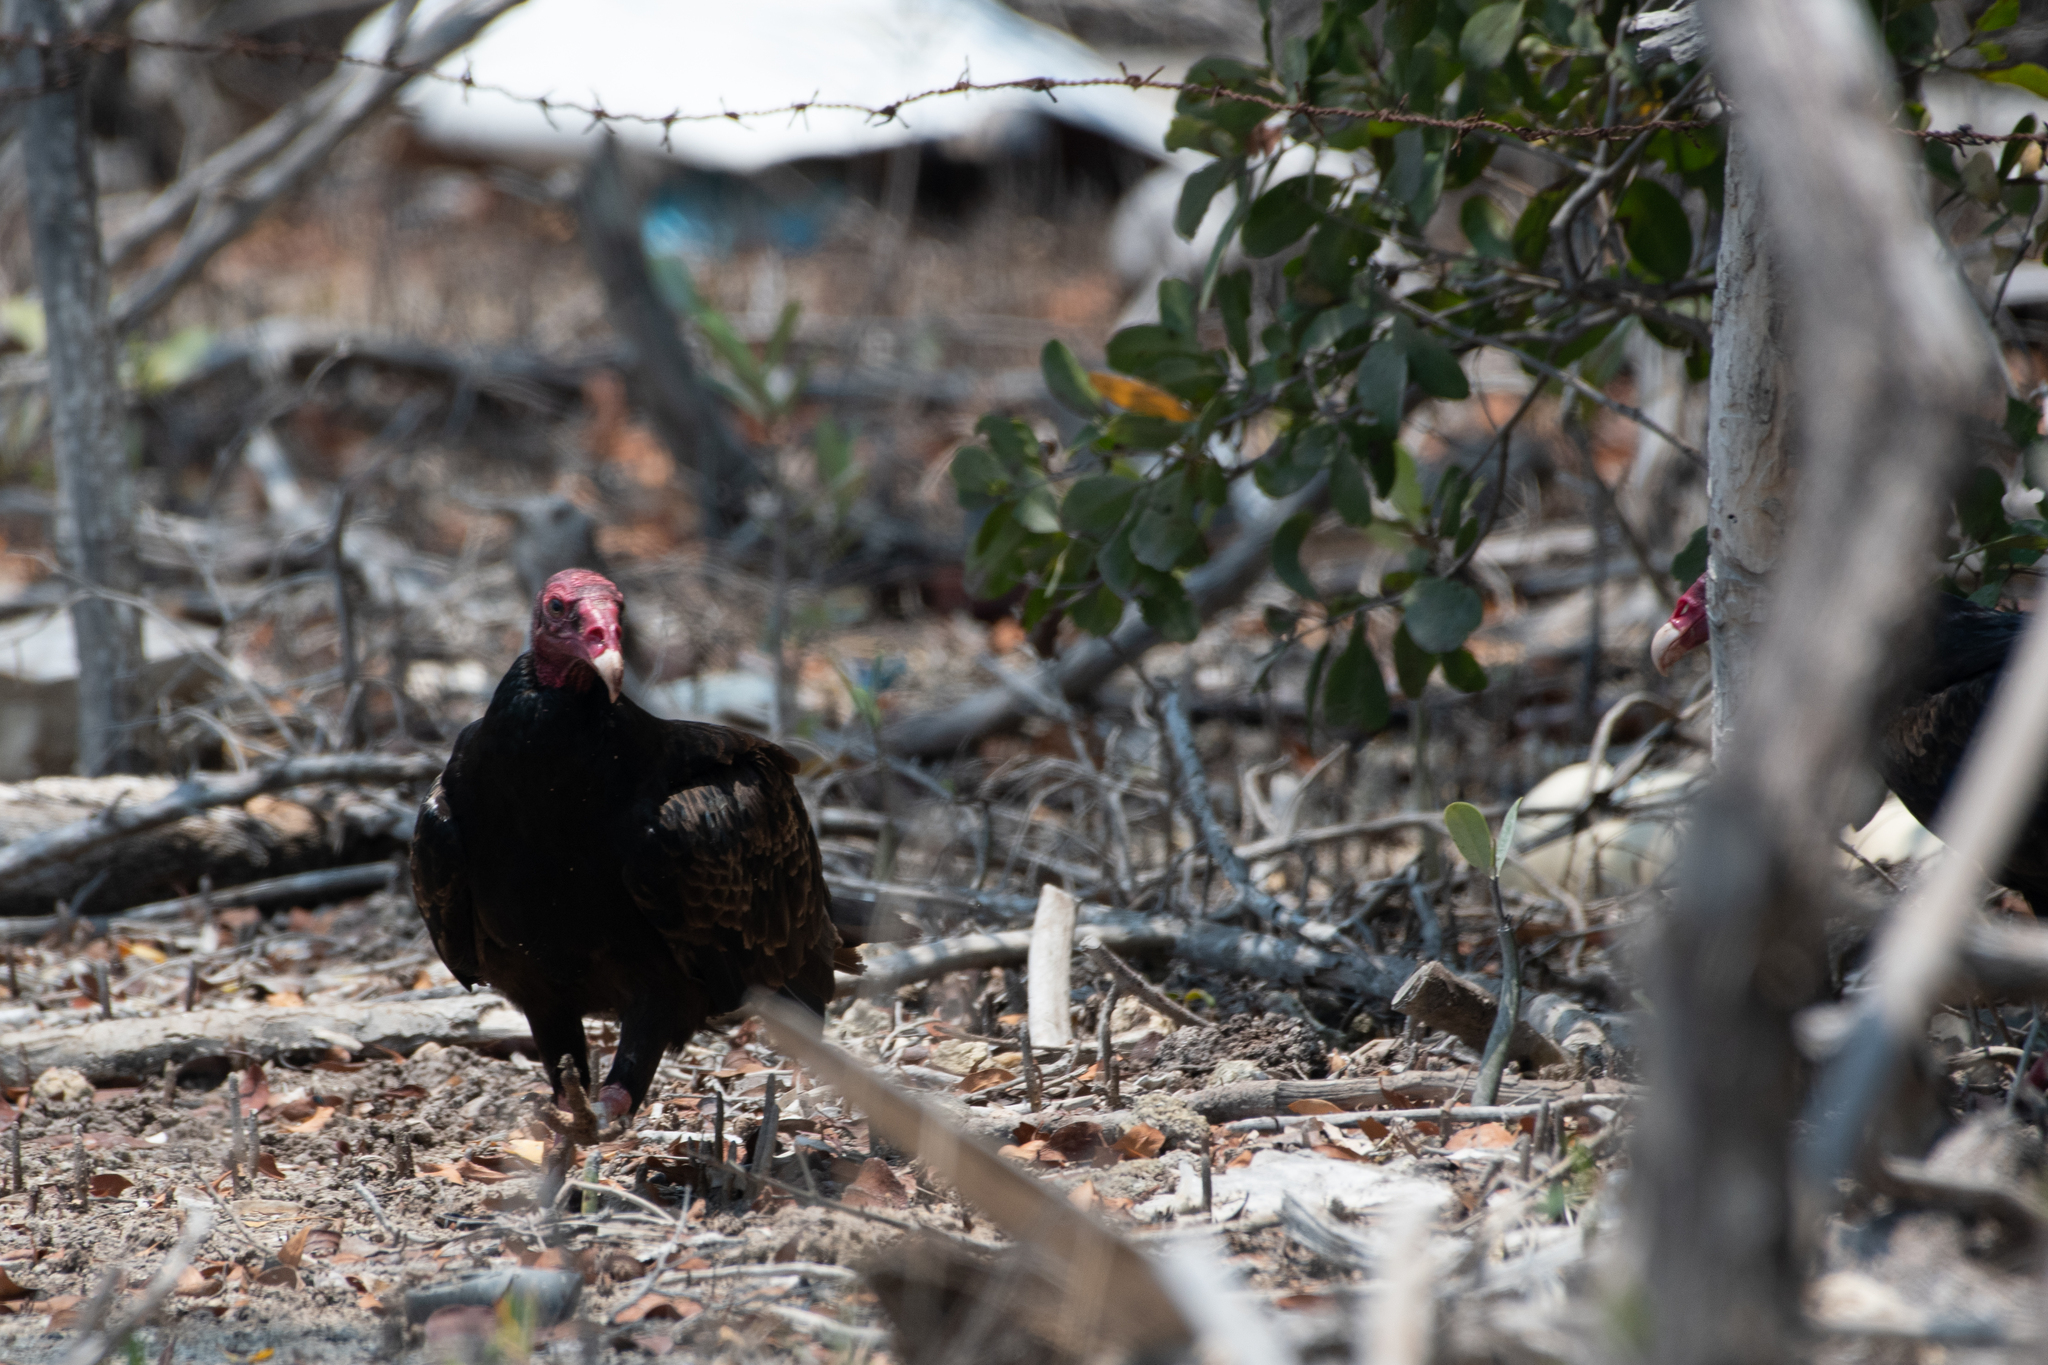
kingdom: Animalia
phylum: Chordata
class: Aves
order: Accipitriformes
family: Cathartidae
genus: Cathartes
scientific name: Cathartes aura
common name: Turkey vulture
